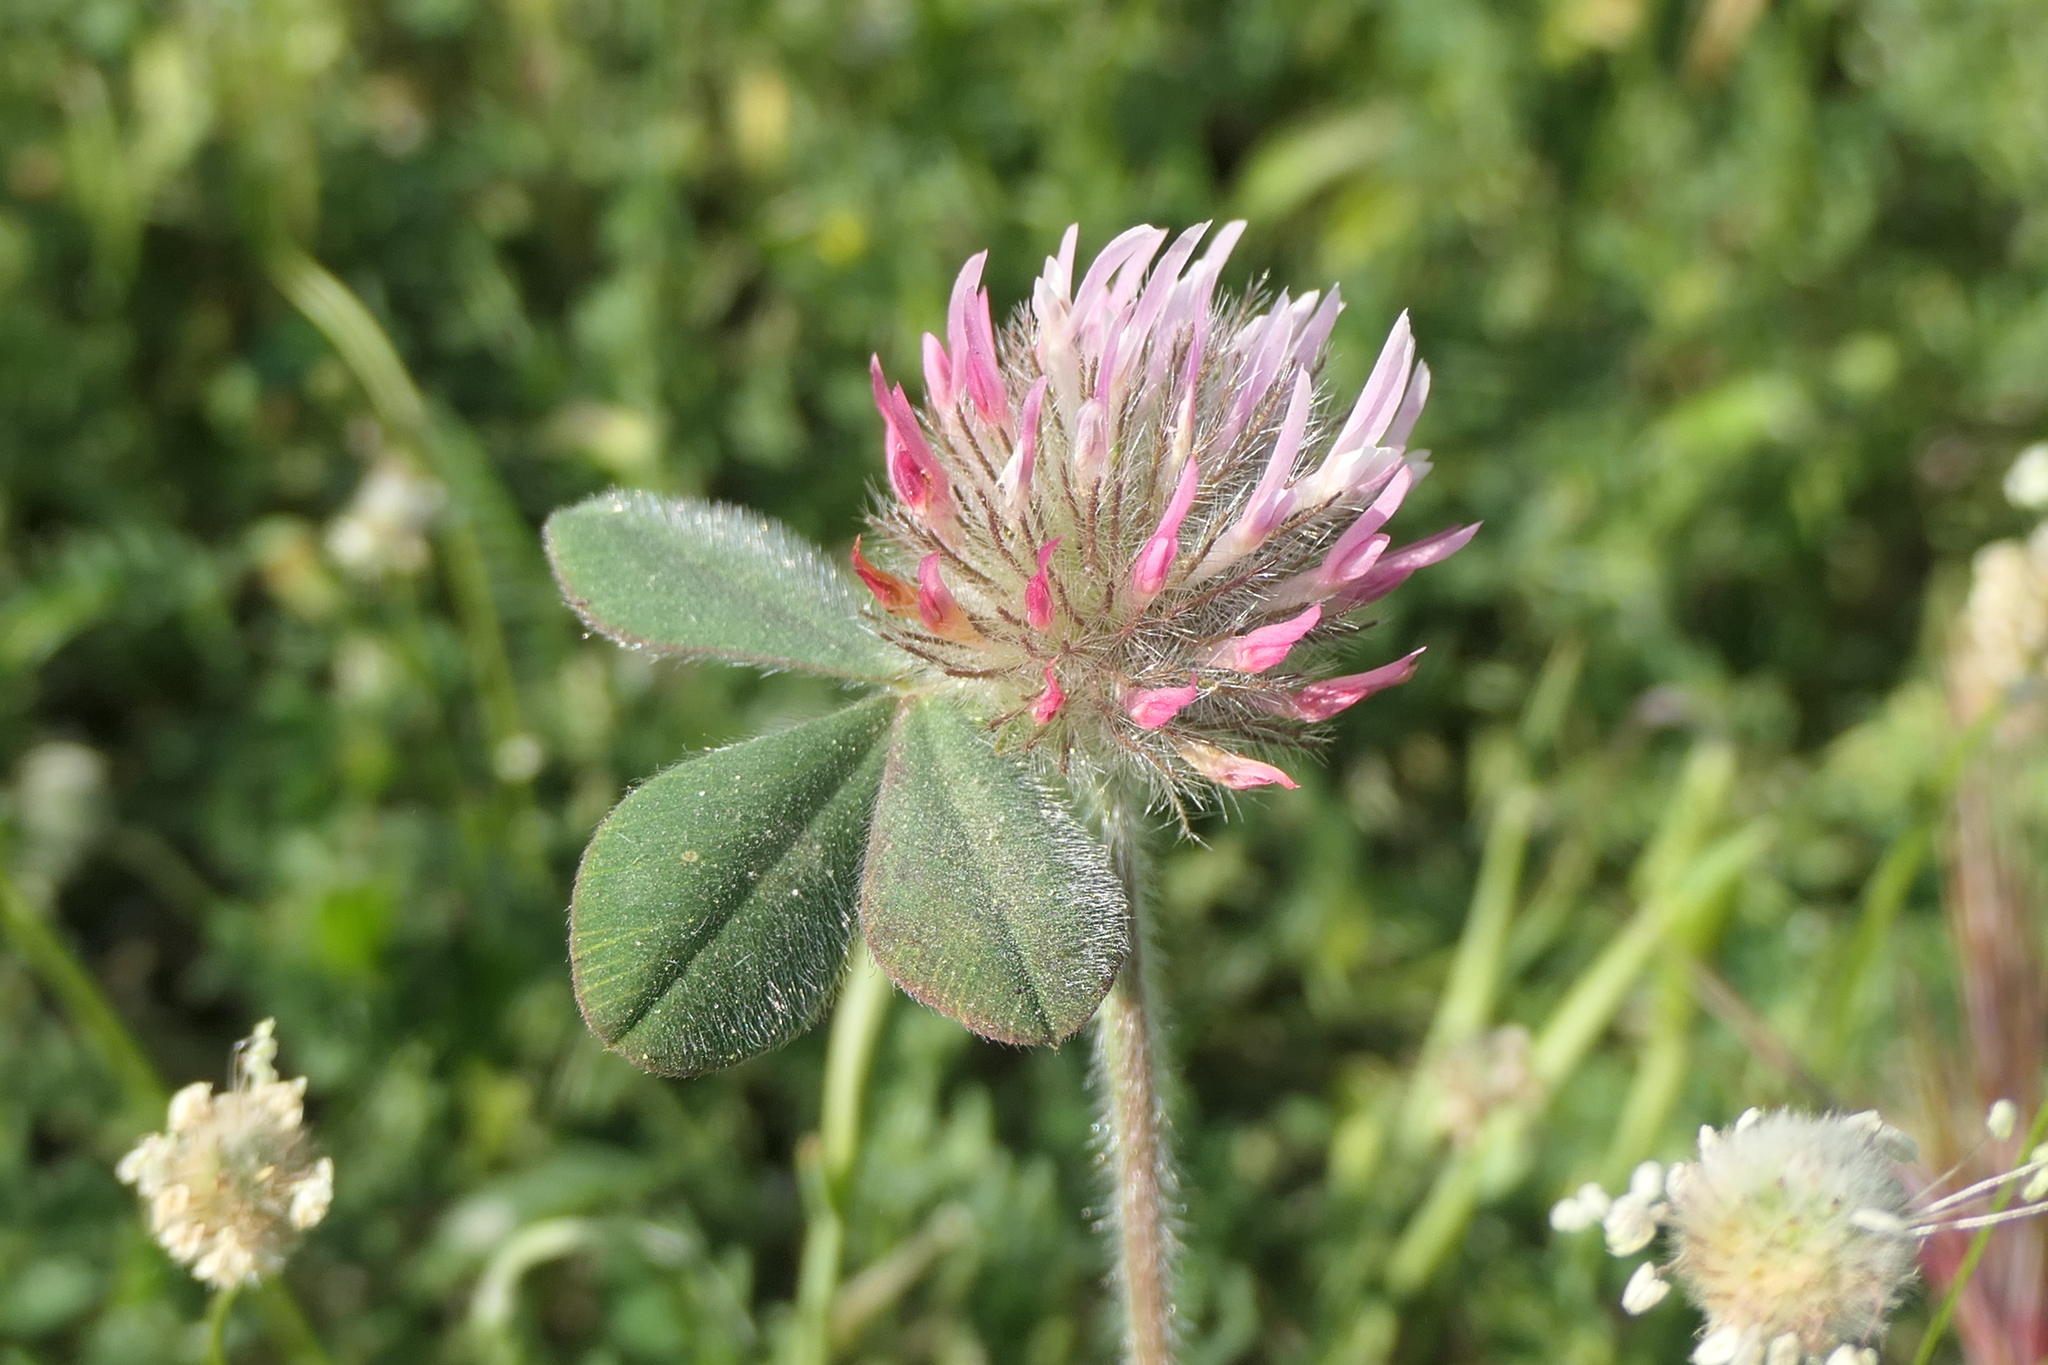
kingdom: Plantae
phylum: Tracheophyta
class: Magnoliopsida
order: Fabales
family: Fabaceae
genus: Trifolium
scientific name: Trifolium hirtum
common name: Rose clover
